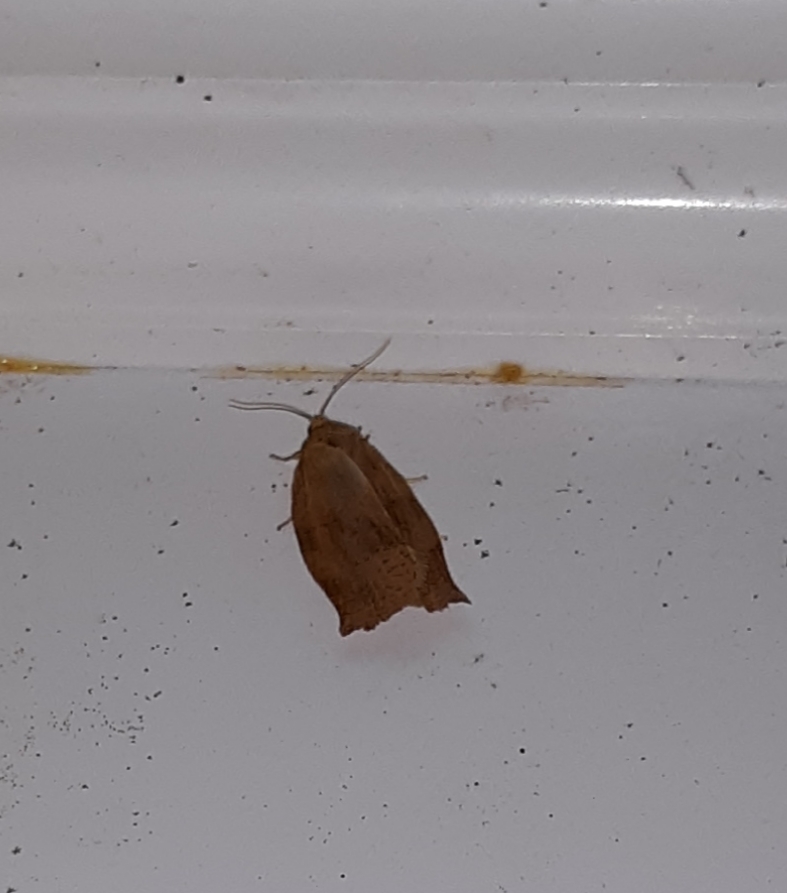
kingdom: Animalia
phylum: Arthropoda
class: Insecta
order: Lepidoptera
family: Tortricidae
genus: Choristoneura
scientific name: Choristoneura rosaceana
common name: Oblique-banded leafroller moth
